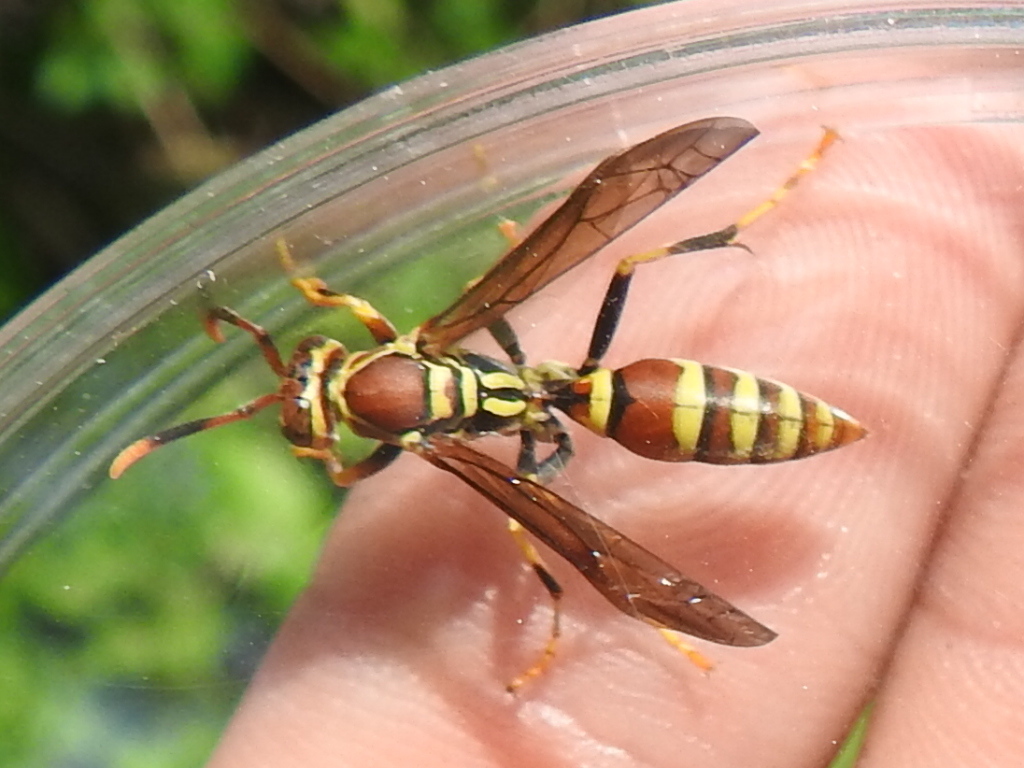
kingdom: Animalia
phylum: Arthropoda
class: Insecta
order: Hymenoptera
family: Eumenidae
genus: Polistes
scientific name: Polistes exclamans
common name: Paper wasp
